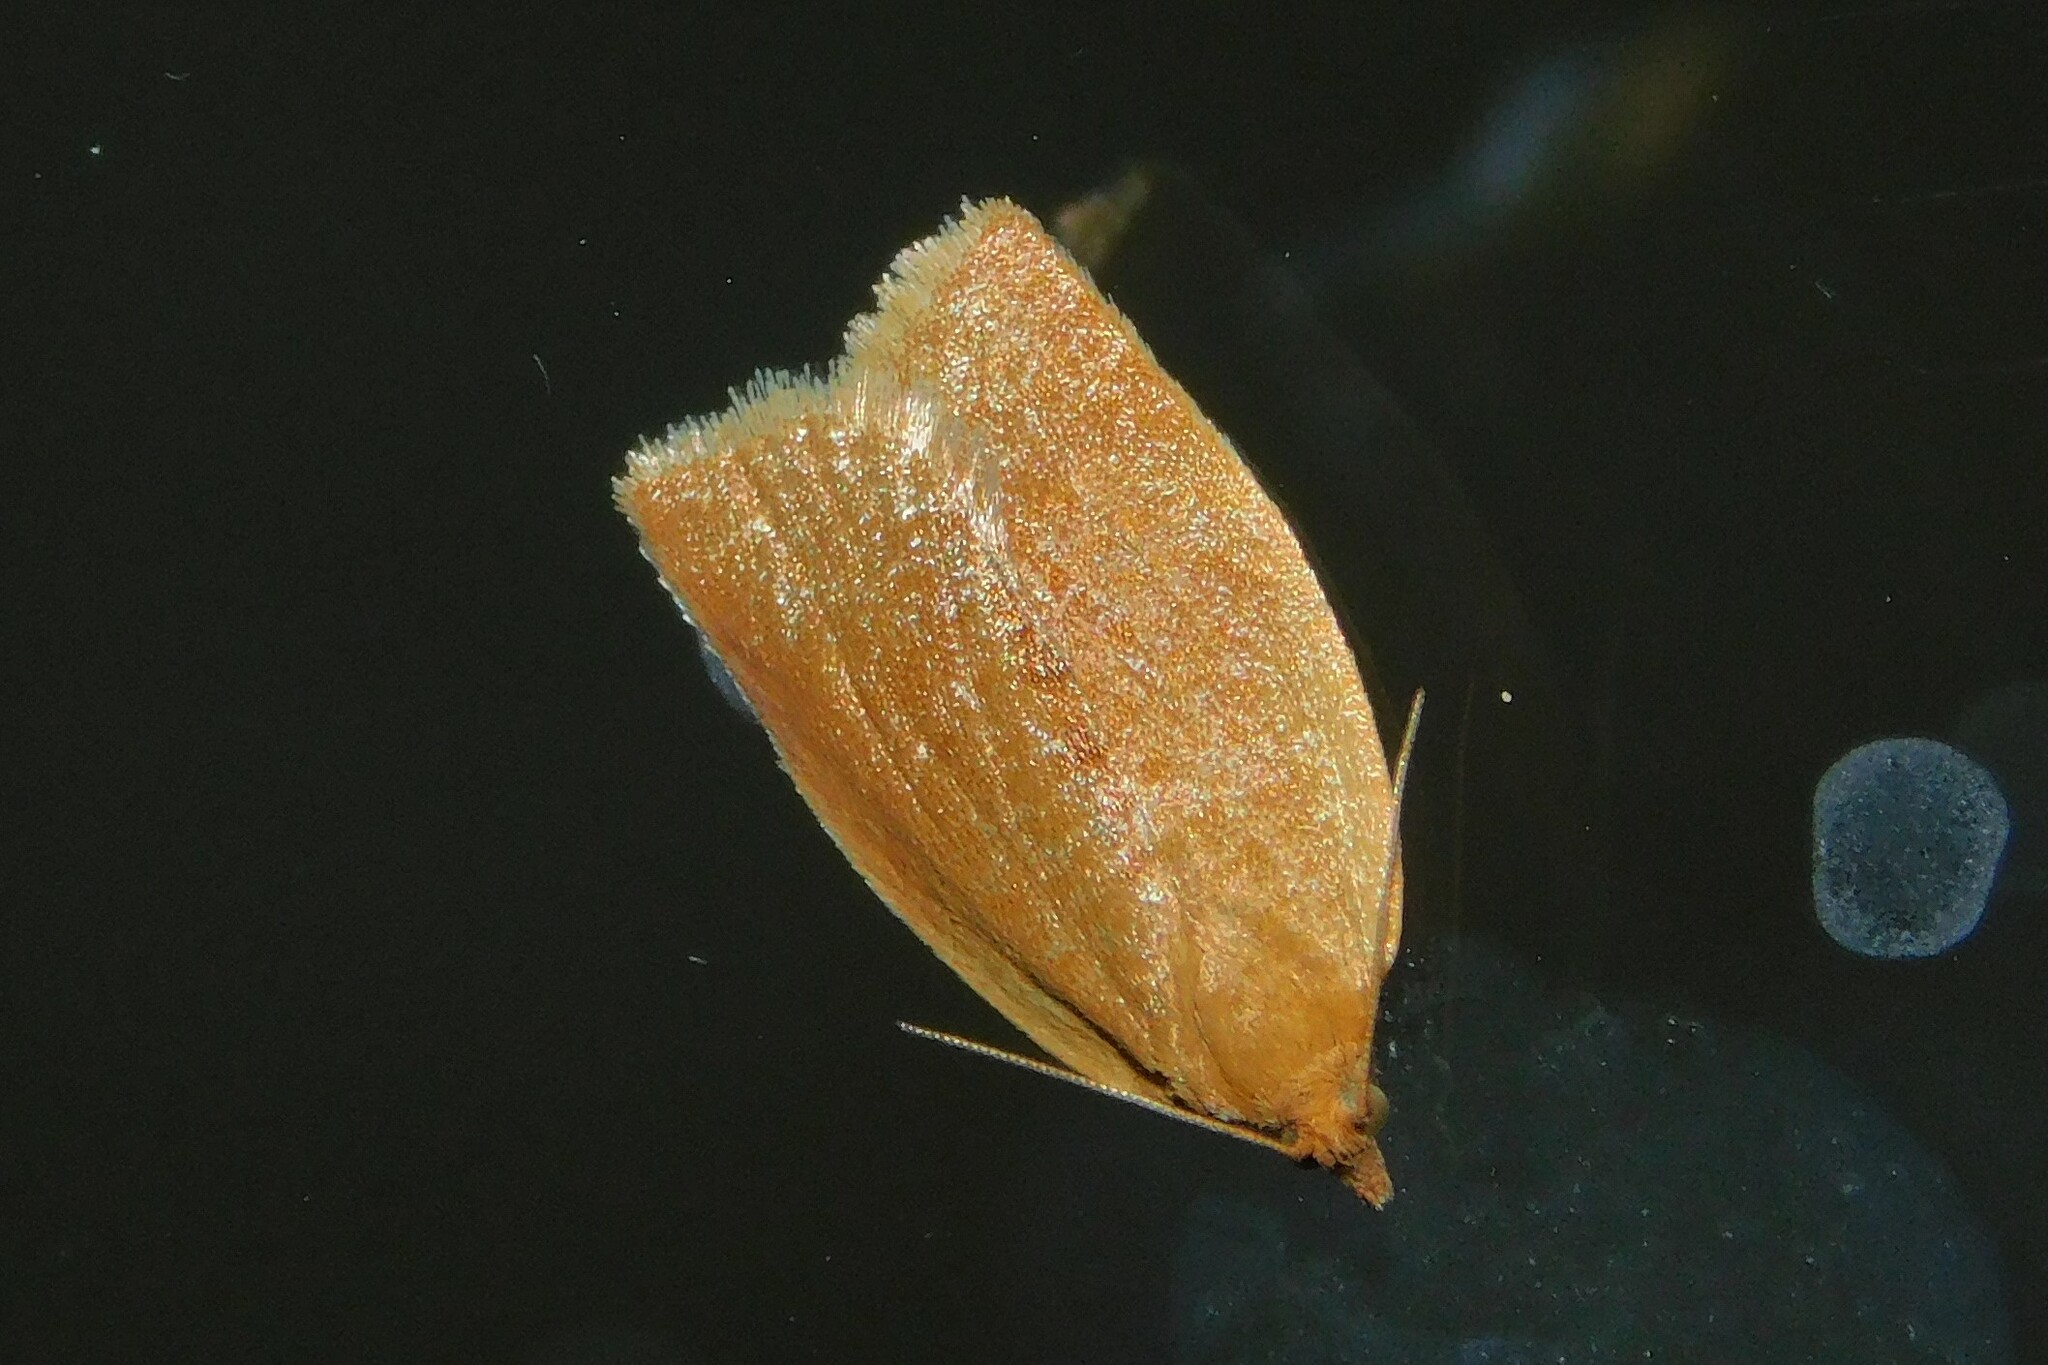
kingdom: Animalia
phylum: Arthropoda
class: Insecta
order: Lepidoptera
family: Tortricidae
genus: Clepsis
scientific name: Clepsis consimilana
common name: Privet tortrix
